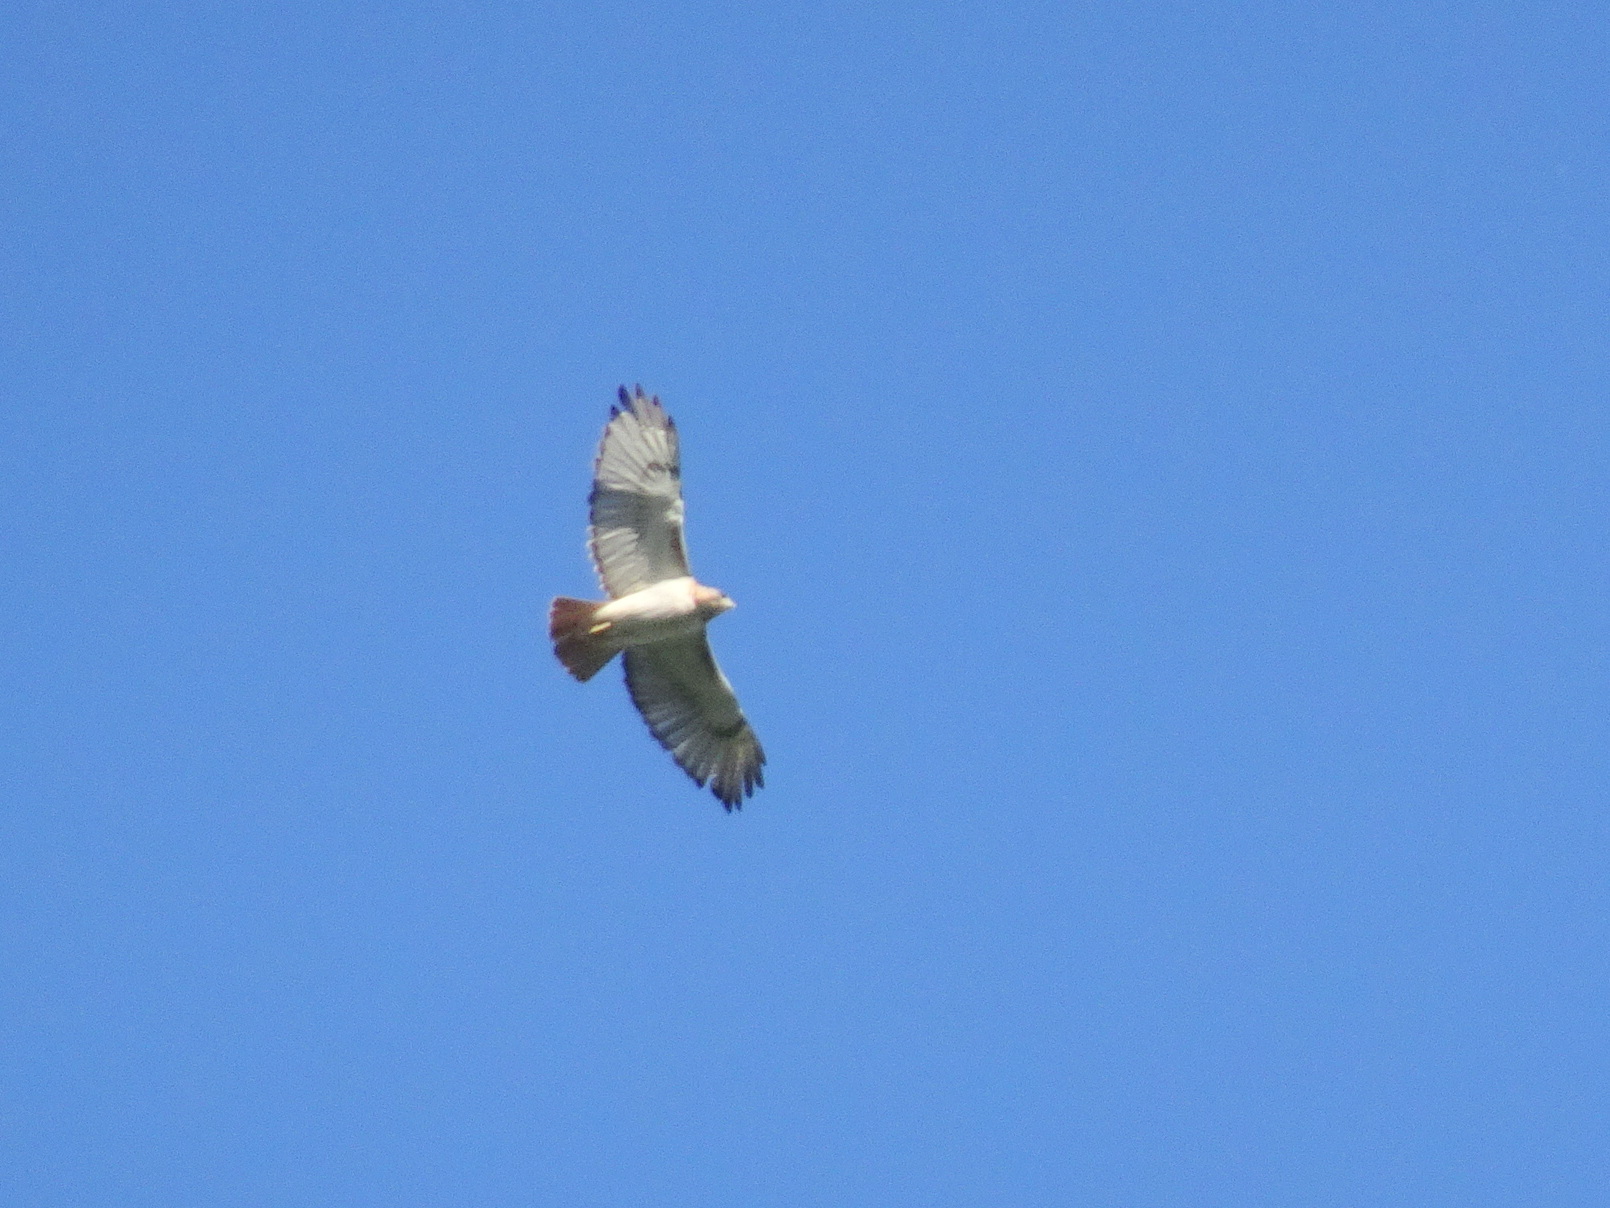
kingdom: Animalia
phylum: Chordata
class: Aves
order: Accipitriformes
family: Accipitridae
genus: Buteo
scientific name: Buteo jamaicensis
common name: Red-tailed hawk
